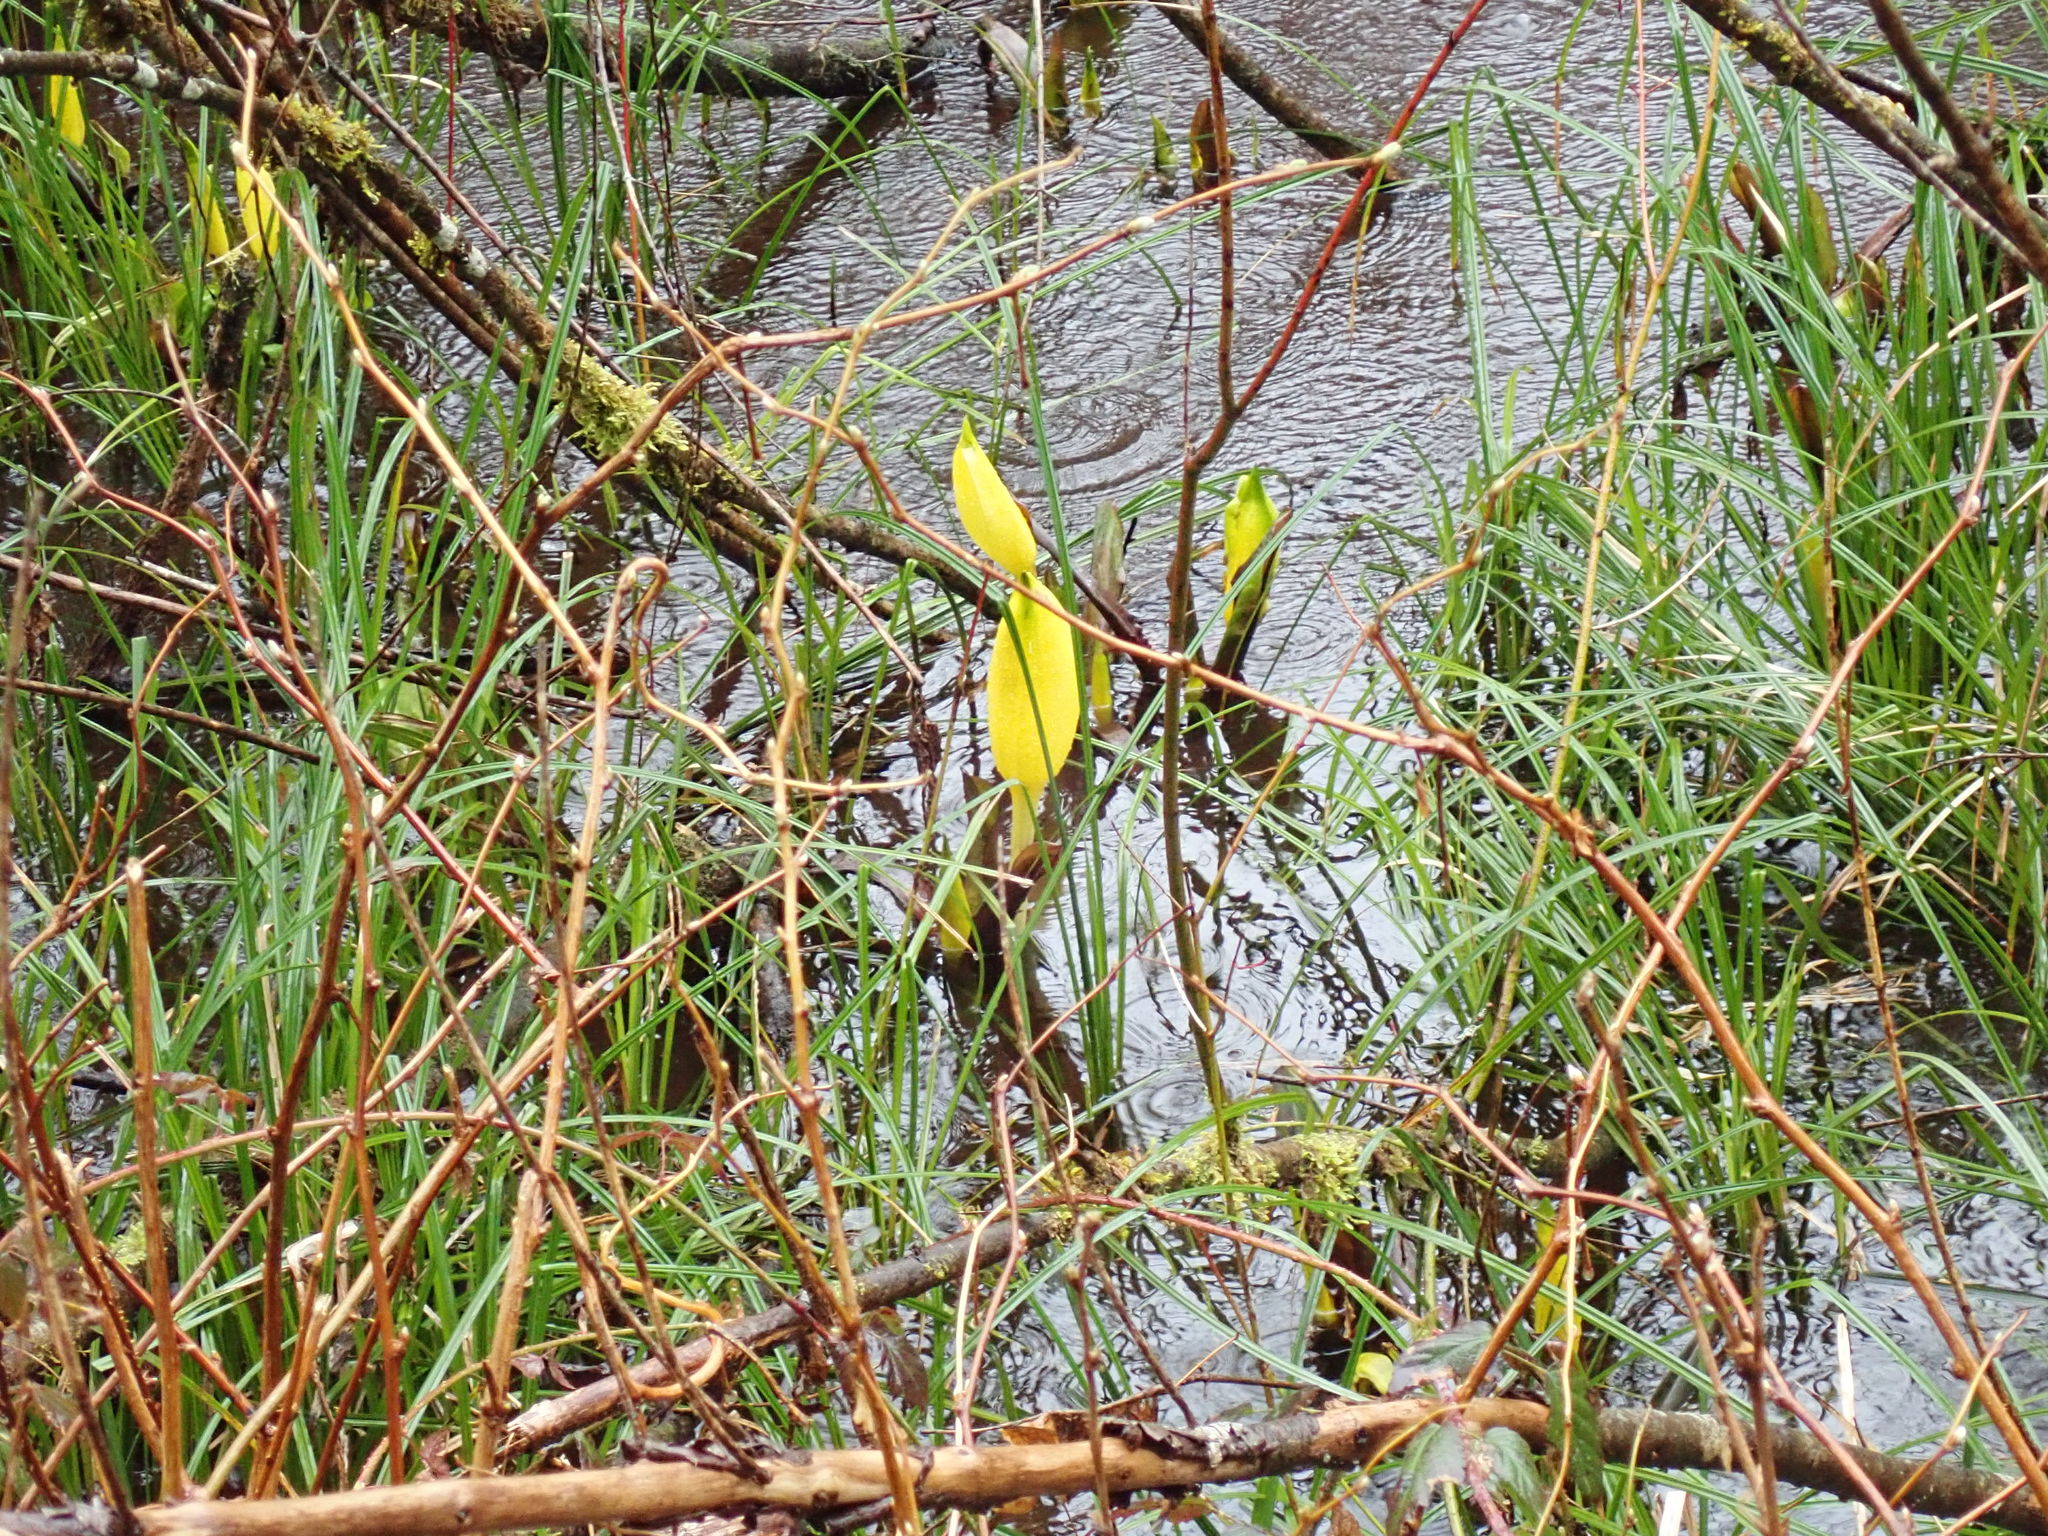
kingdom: Plantae
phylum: Tracheophyta
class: Liliopsida
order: Alismatales
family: Araceae
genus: Lysichiton
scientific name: Lysichiton americanus
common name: American skunk cabbage
